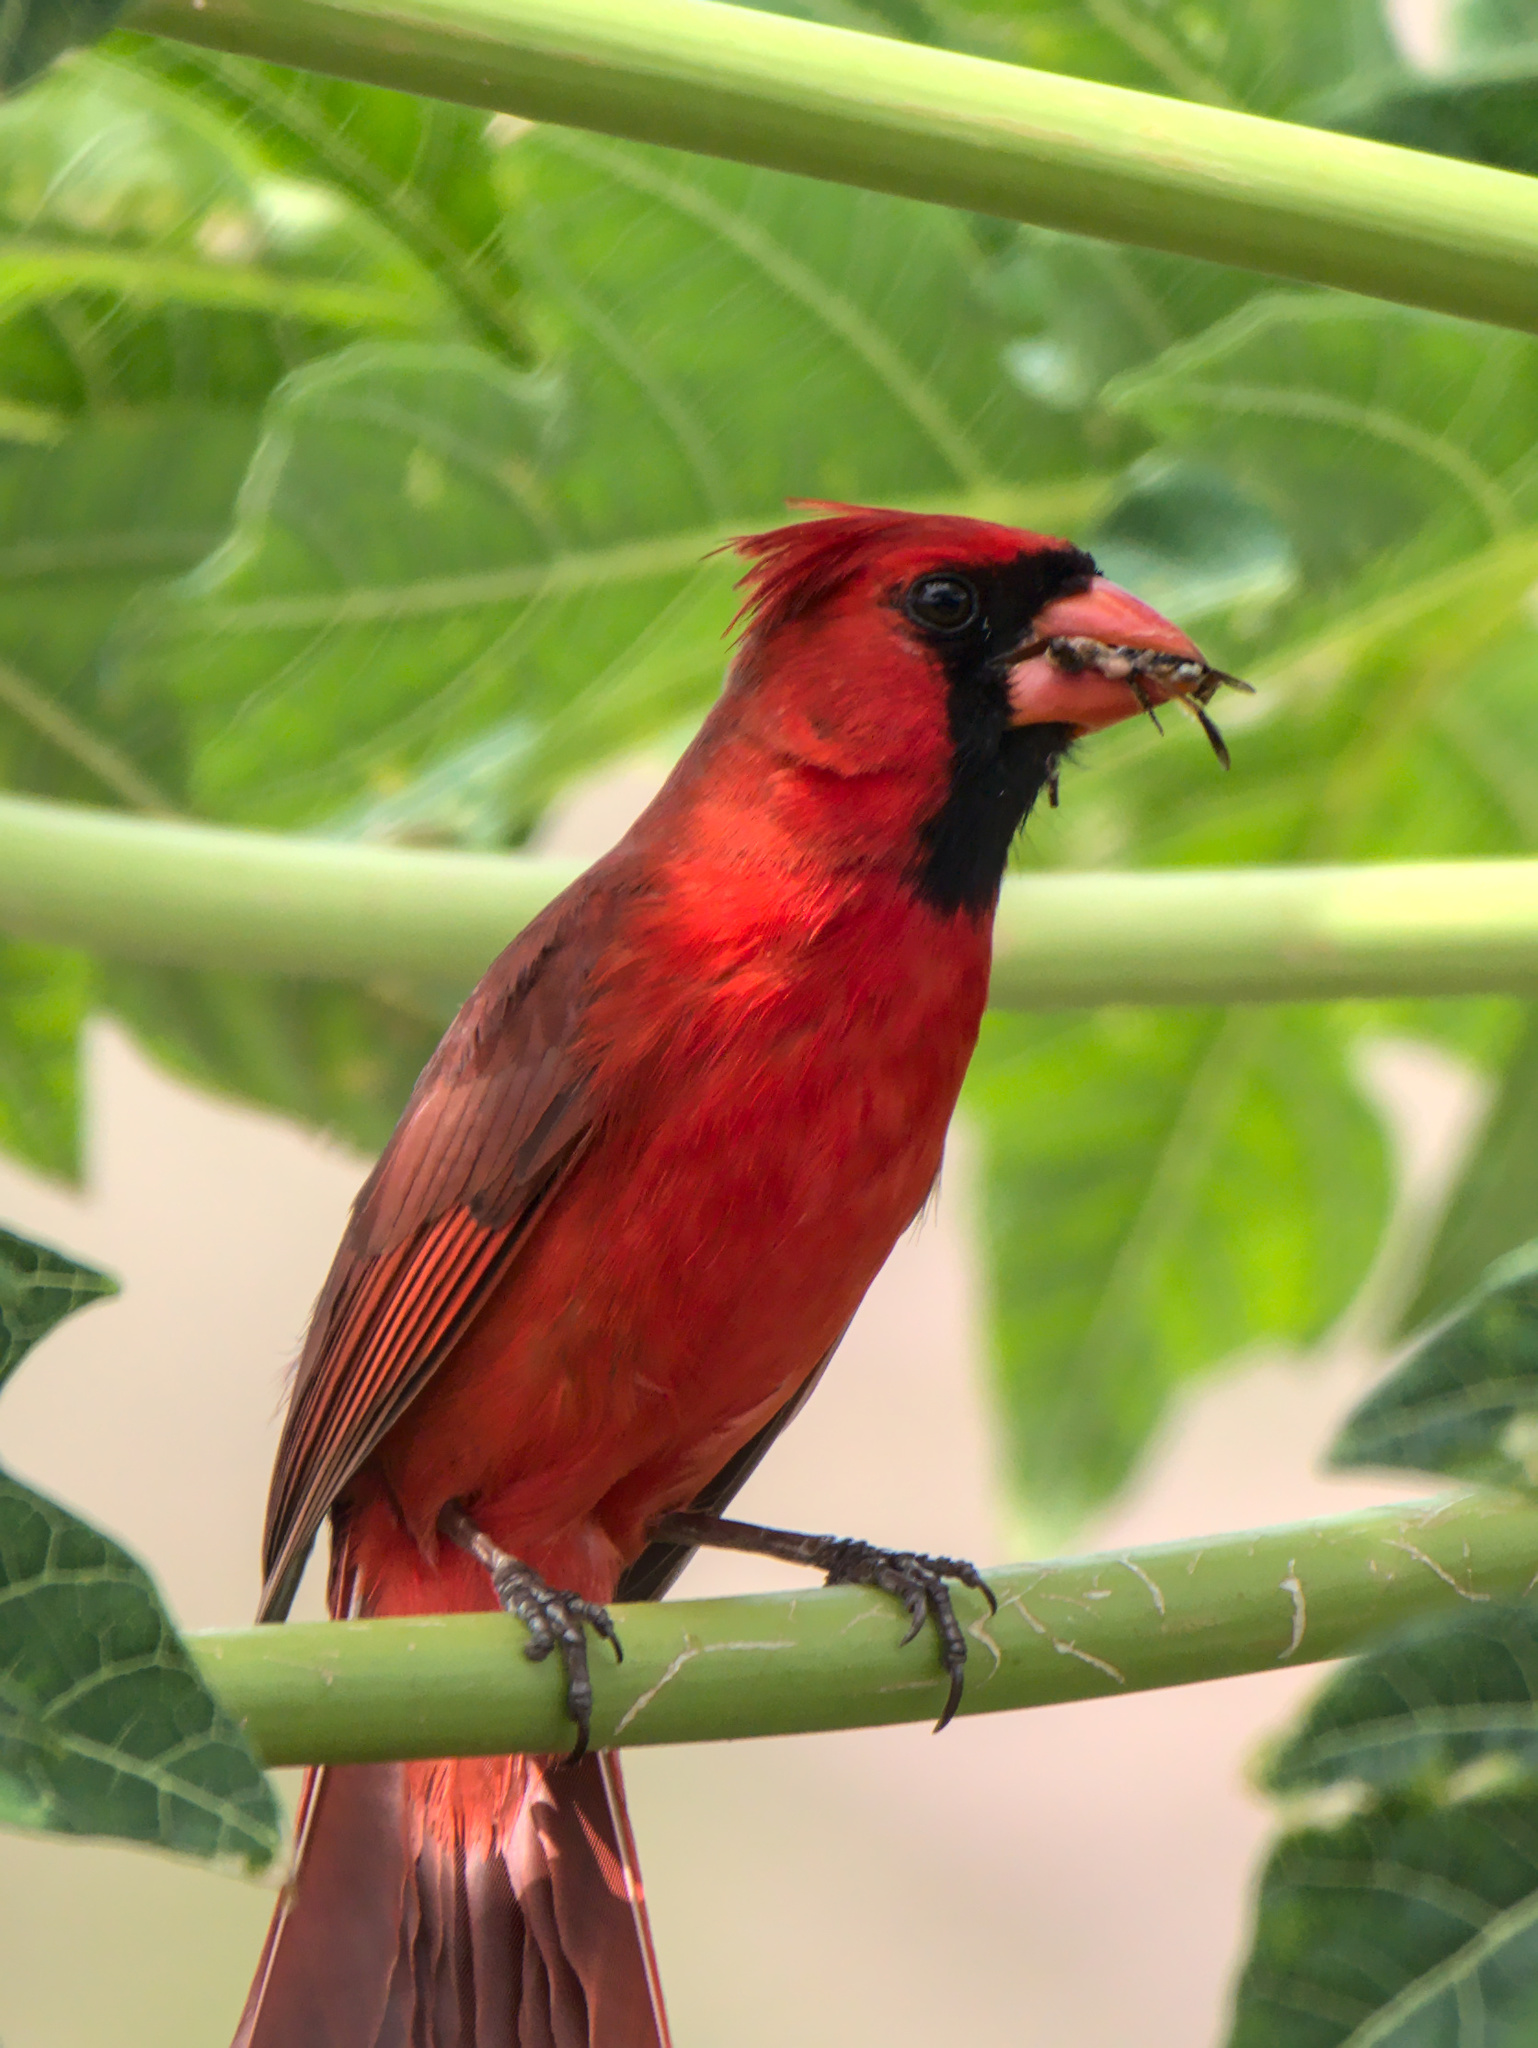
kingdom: Animalia
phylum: Chordata
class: Aves
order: Passeriformes
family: Cardinalidae
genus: Cardinalis
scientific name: Cardinalis cardinalis
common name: Northern cardinal
